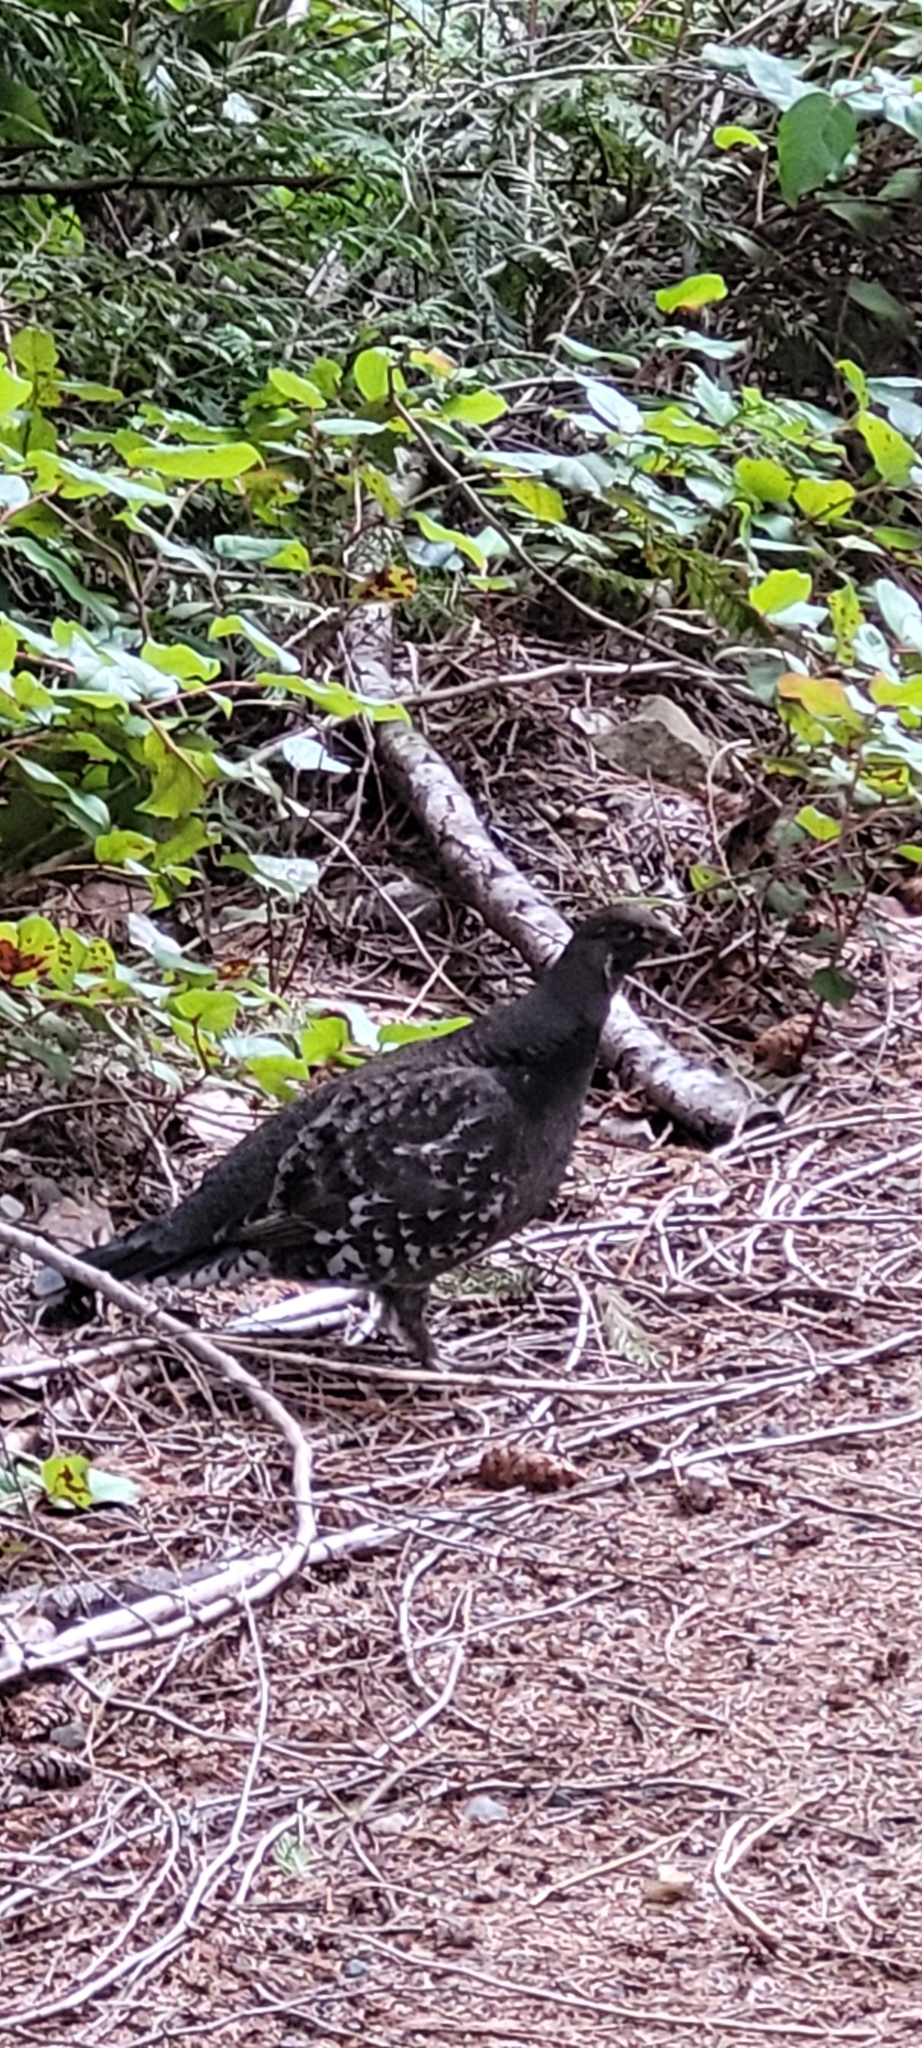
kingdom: Animalia
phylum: Chordata
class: Aves
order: Galliformes
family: Phasianidae
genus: Dendragapus
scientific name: Dendragapus fuliginosus
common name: Sooty grouse
